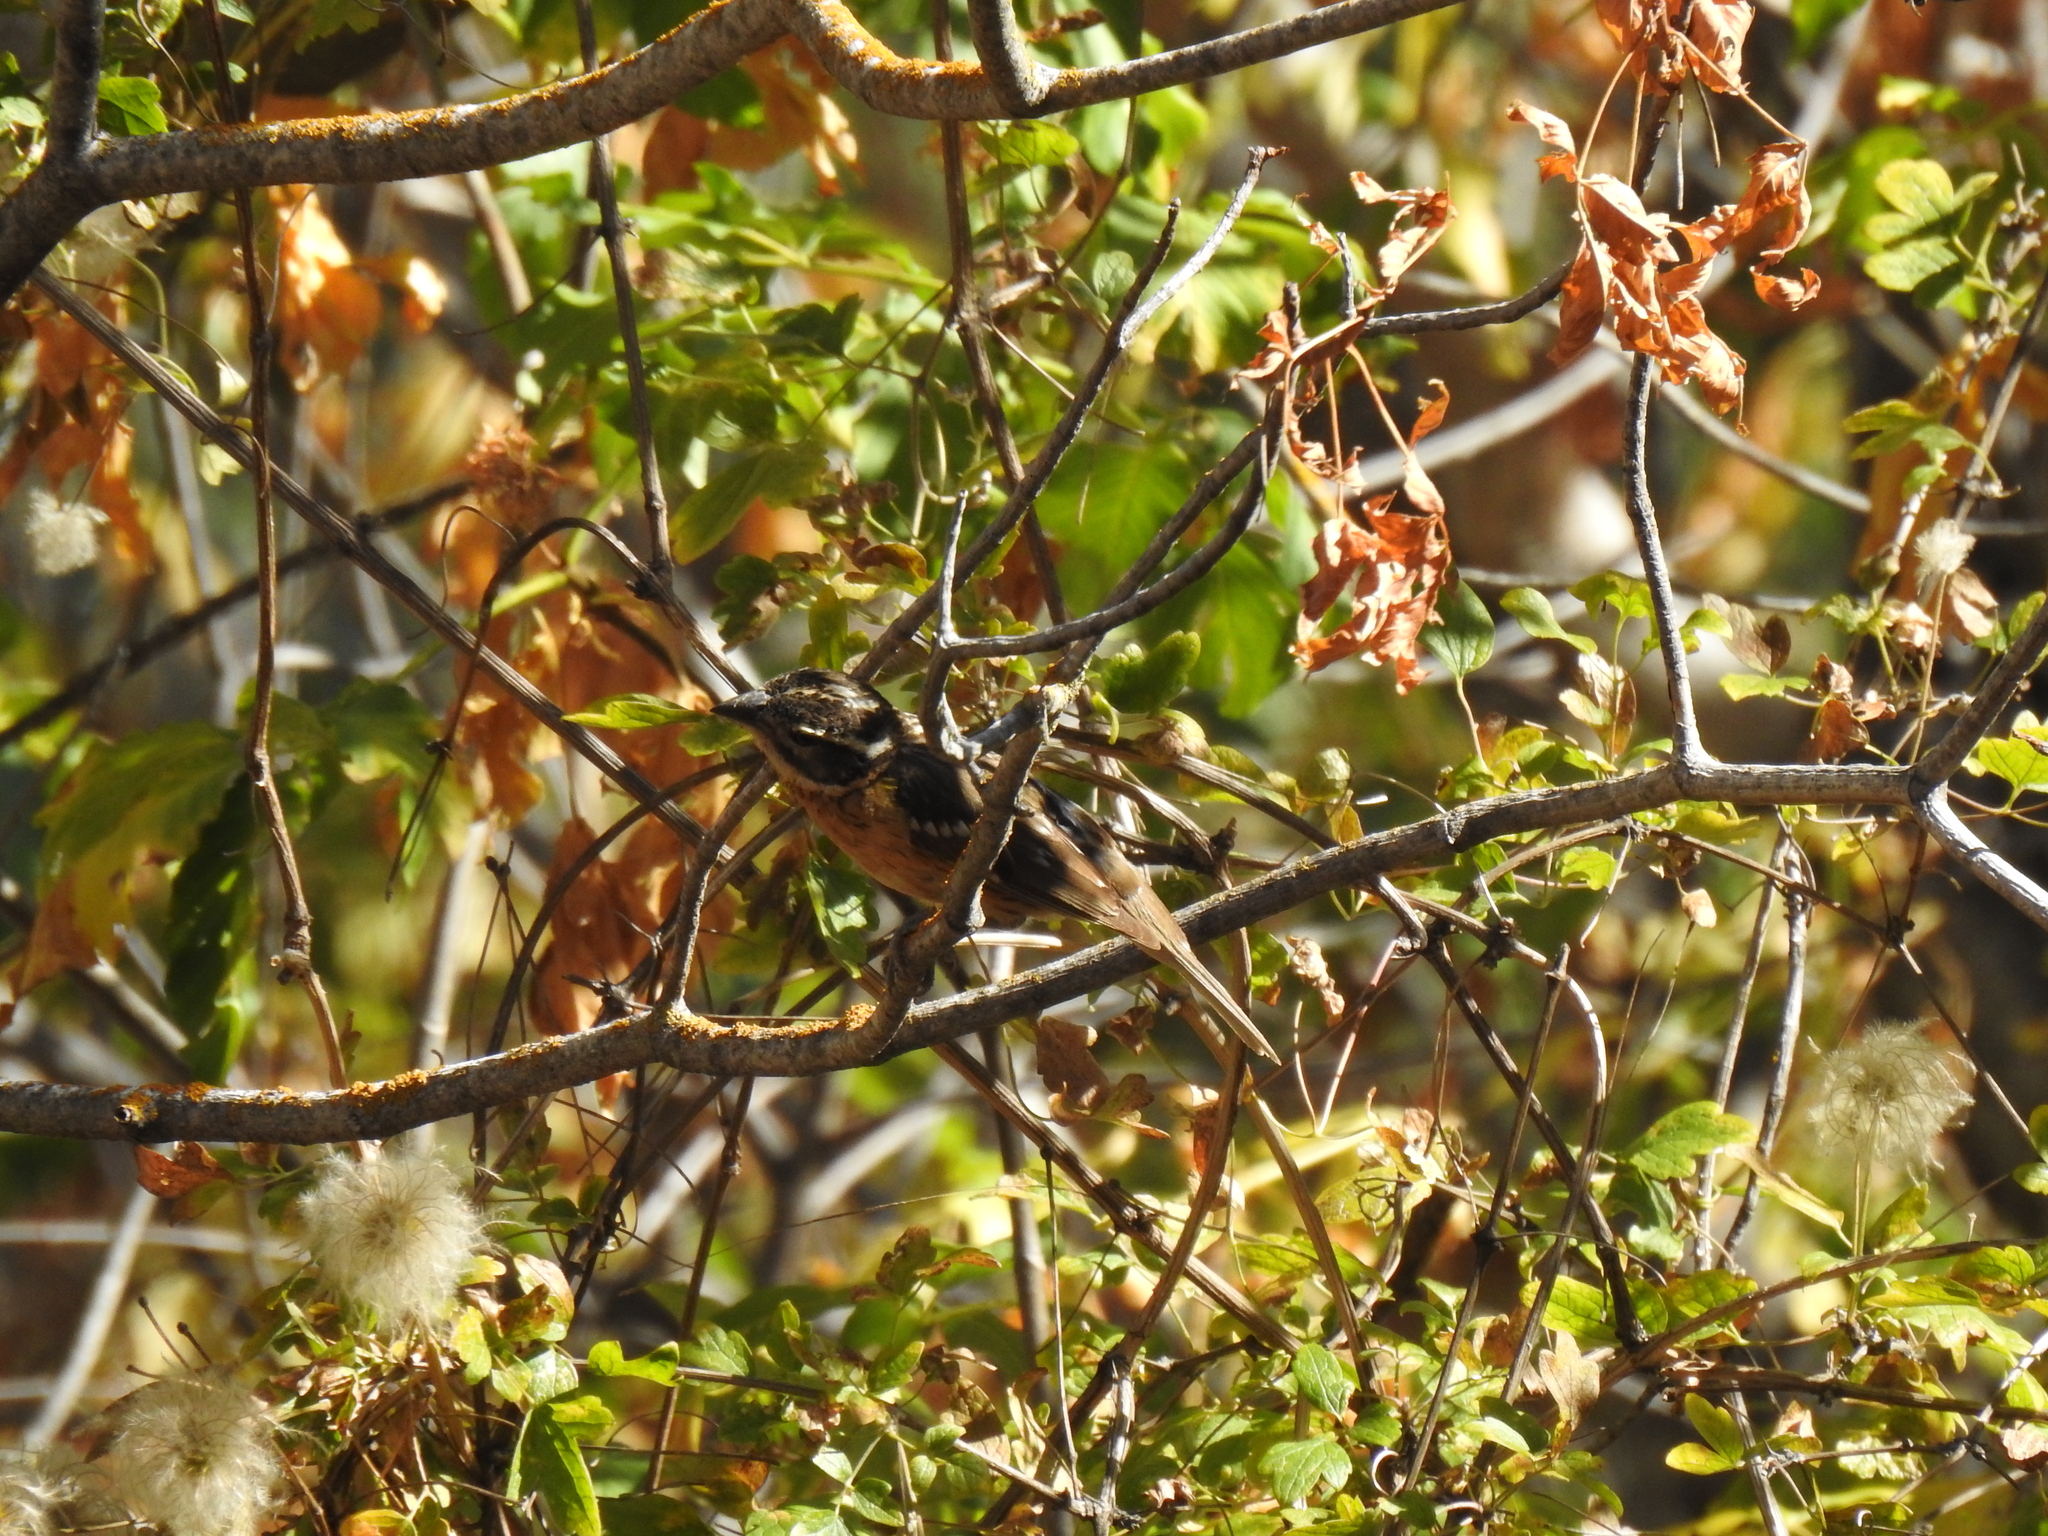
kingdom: Animalia
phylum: Chordata
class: Aves
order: Passeriformes
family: Cardinalidae
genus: Pheucticus
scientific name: Pheucticus melanocephalus
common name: Black-headed grosbeak
